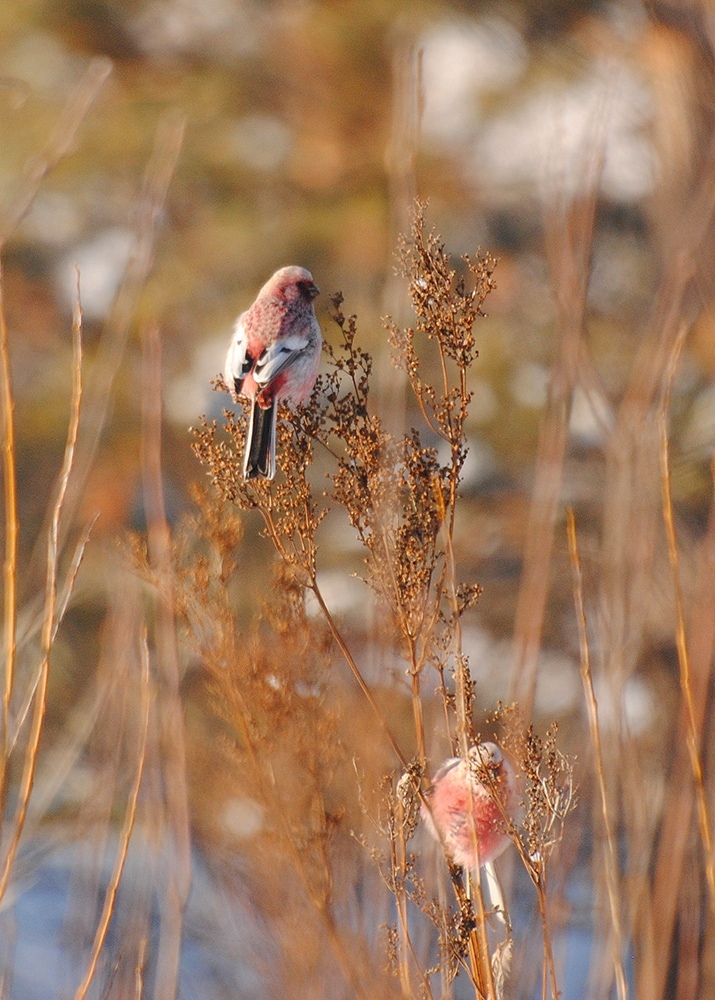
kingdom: Animalia
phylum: Chordata
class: Aves
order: Passeriformes
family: Fringillidae
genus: Carpodacus
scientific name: Carpodacus sibiricus
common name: Long-tailed rosefinch
